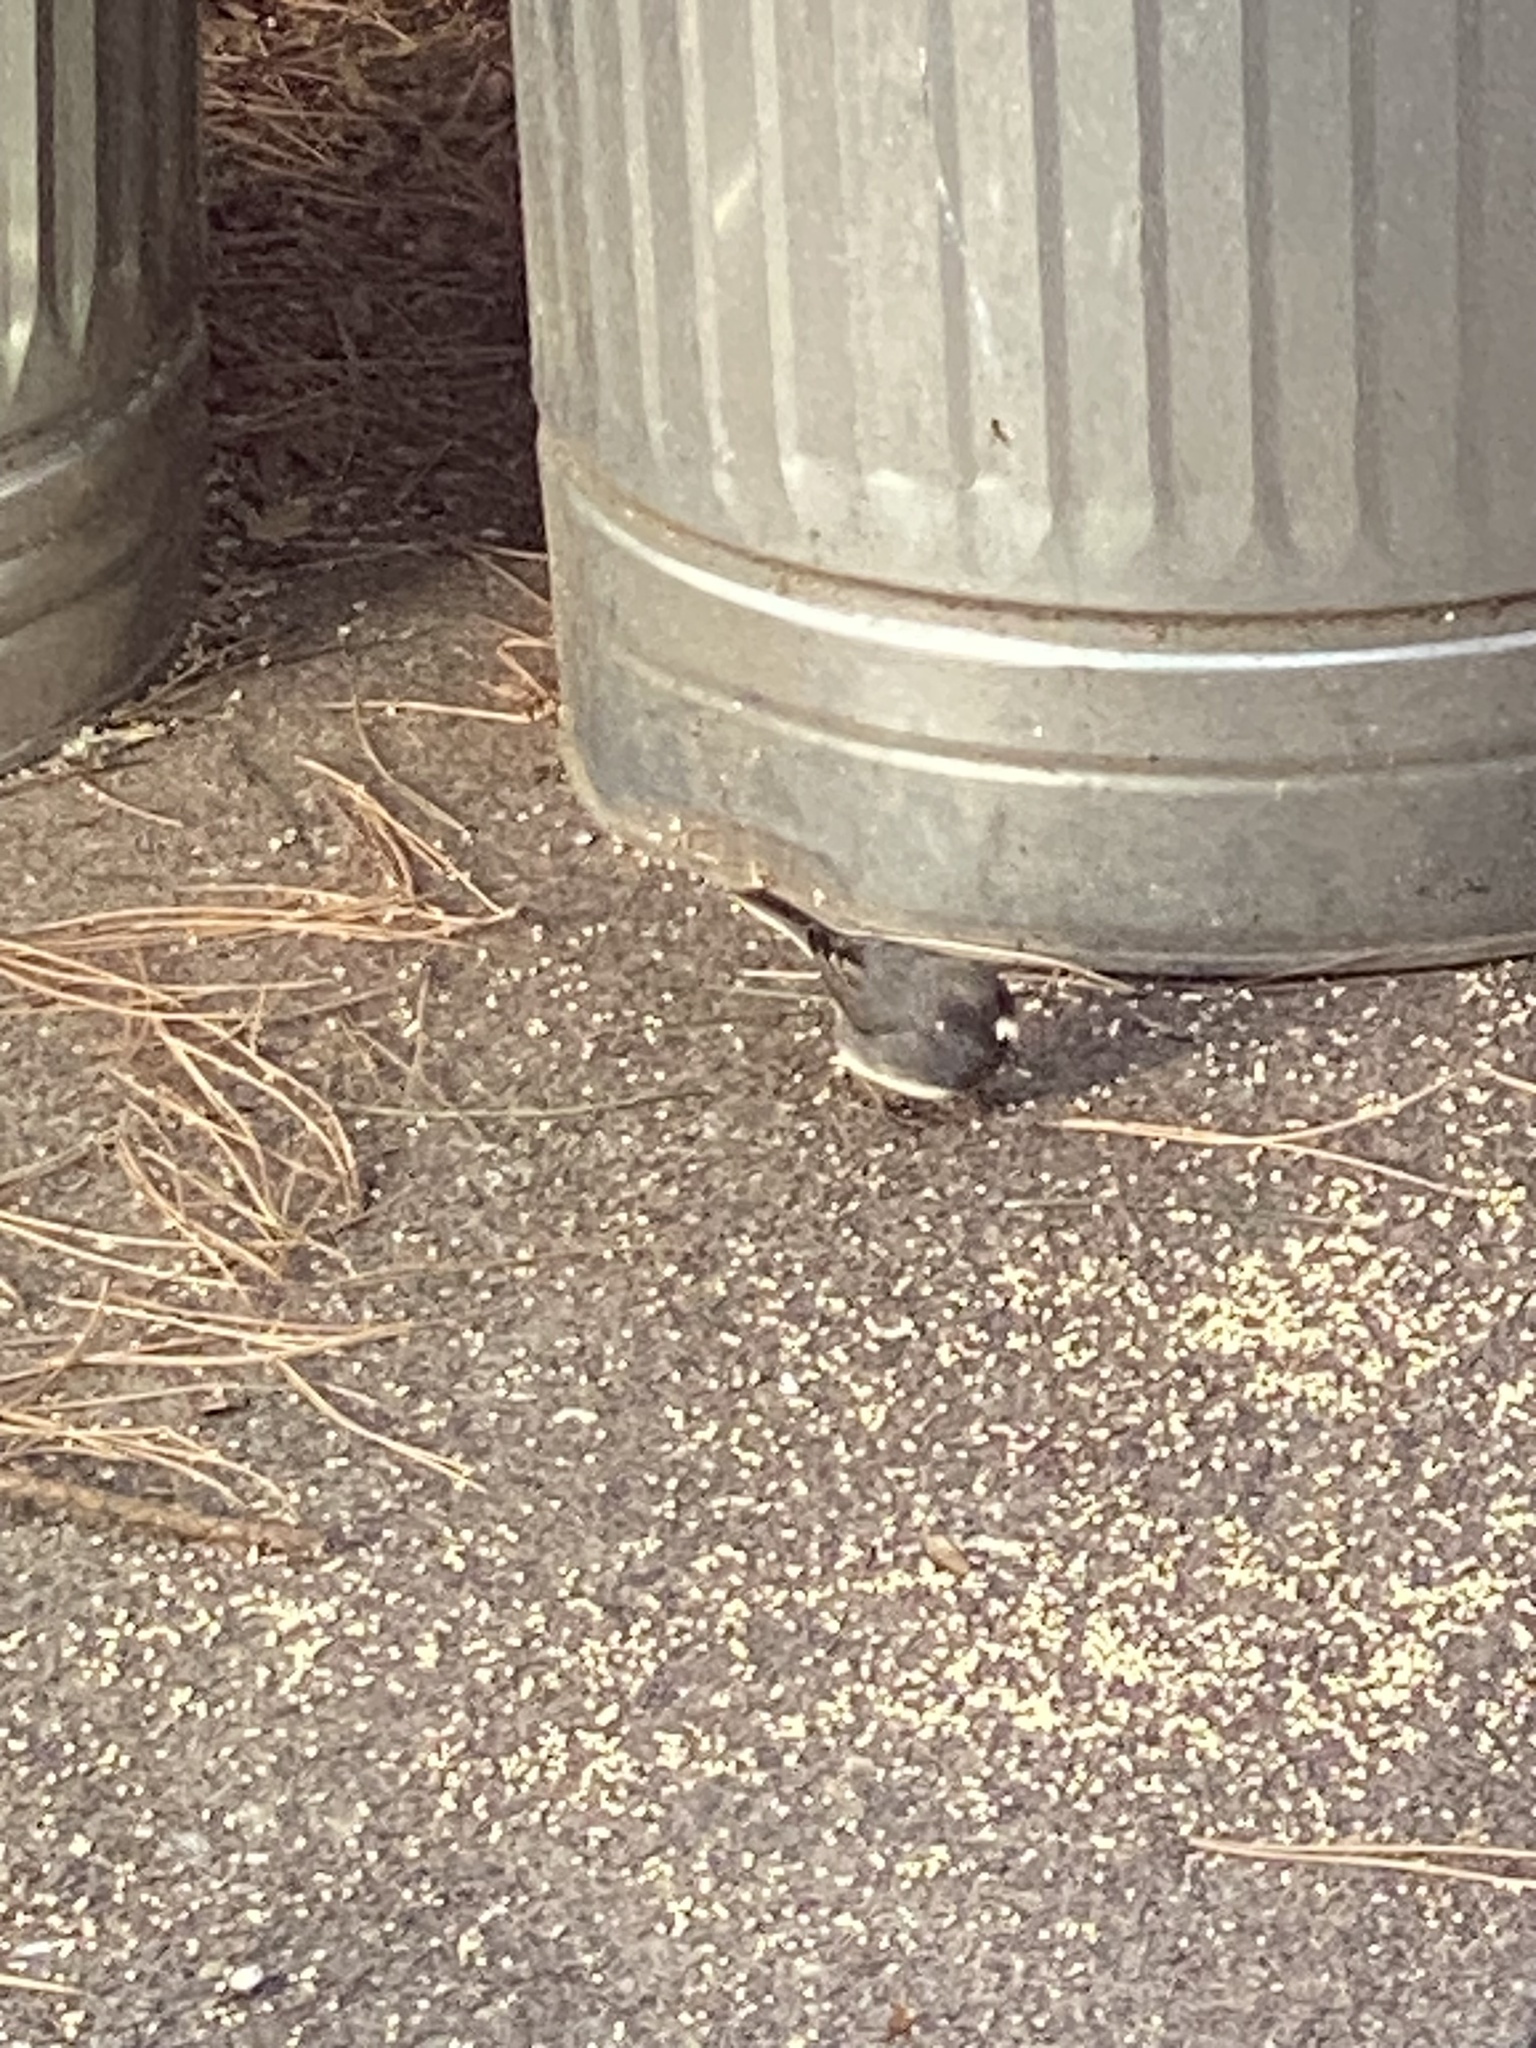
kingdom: Animalia
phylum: Chordata
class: Aves
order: Passeriformes
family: Passerellidae
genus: Junco
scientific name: Junco hyemalis
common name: Dark-eyed junco
